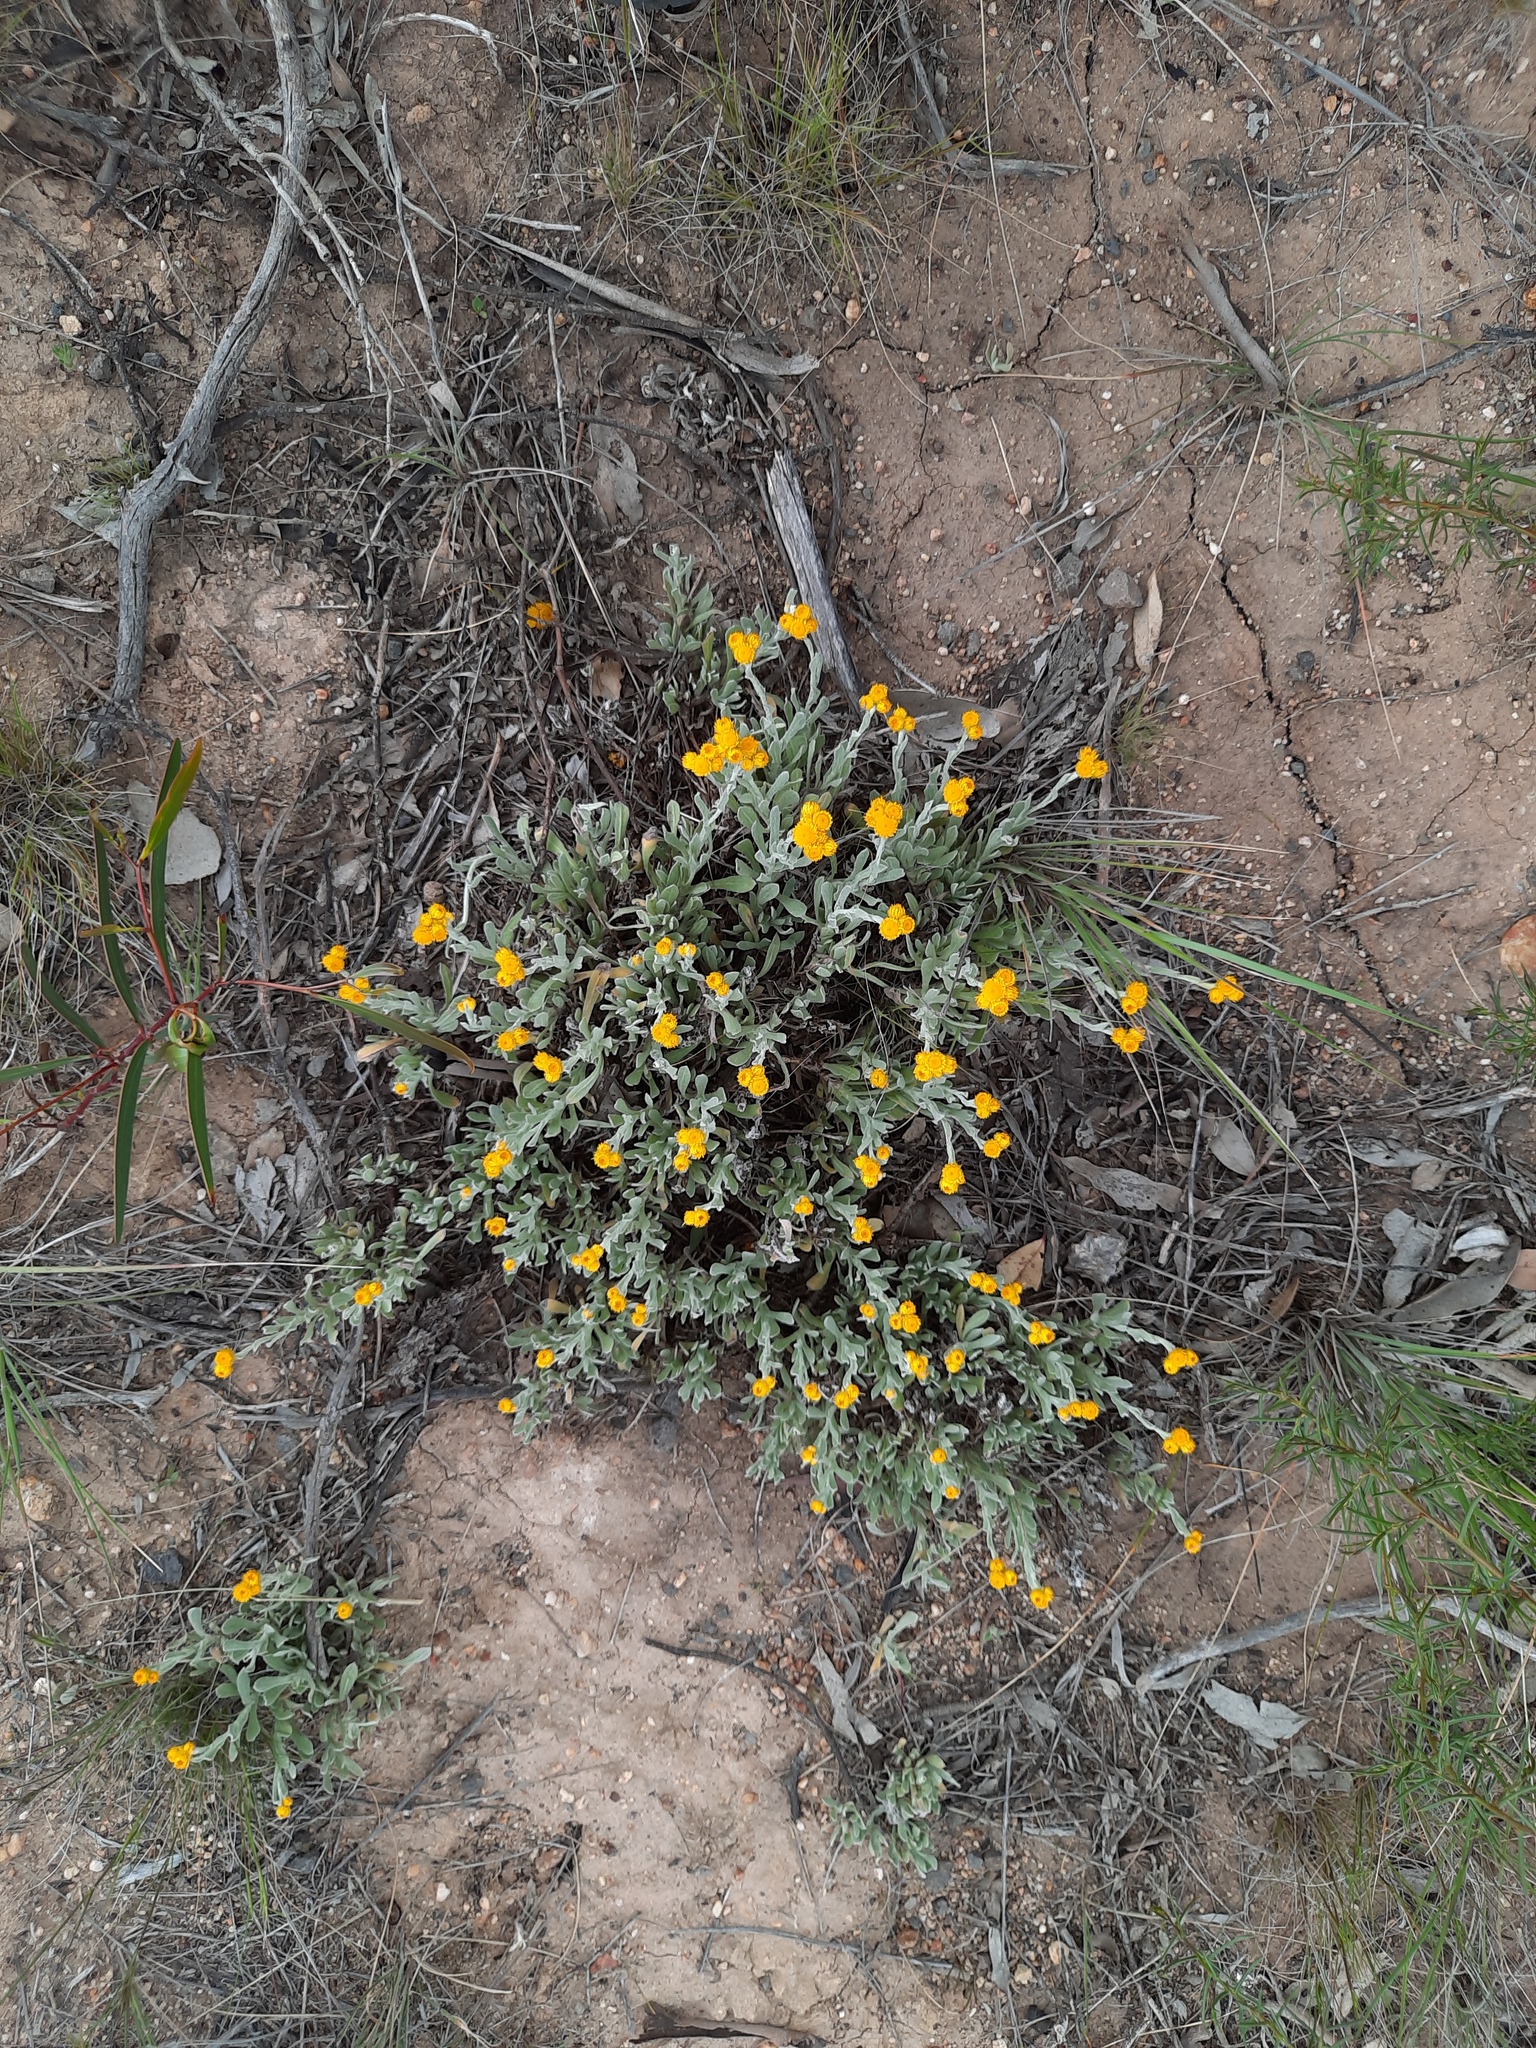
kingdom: Plantae
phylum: Tracheophyta
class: Magnoliopsida
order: Asterales
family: Asteraceae
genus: Chrysocephalum
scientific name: Chrysocephalum apiculatum
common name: Common everlasting
